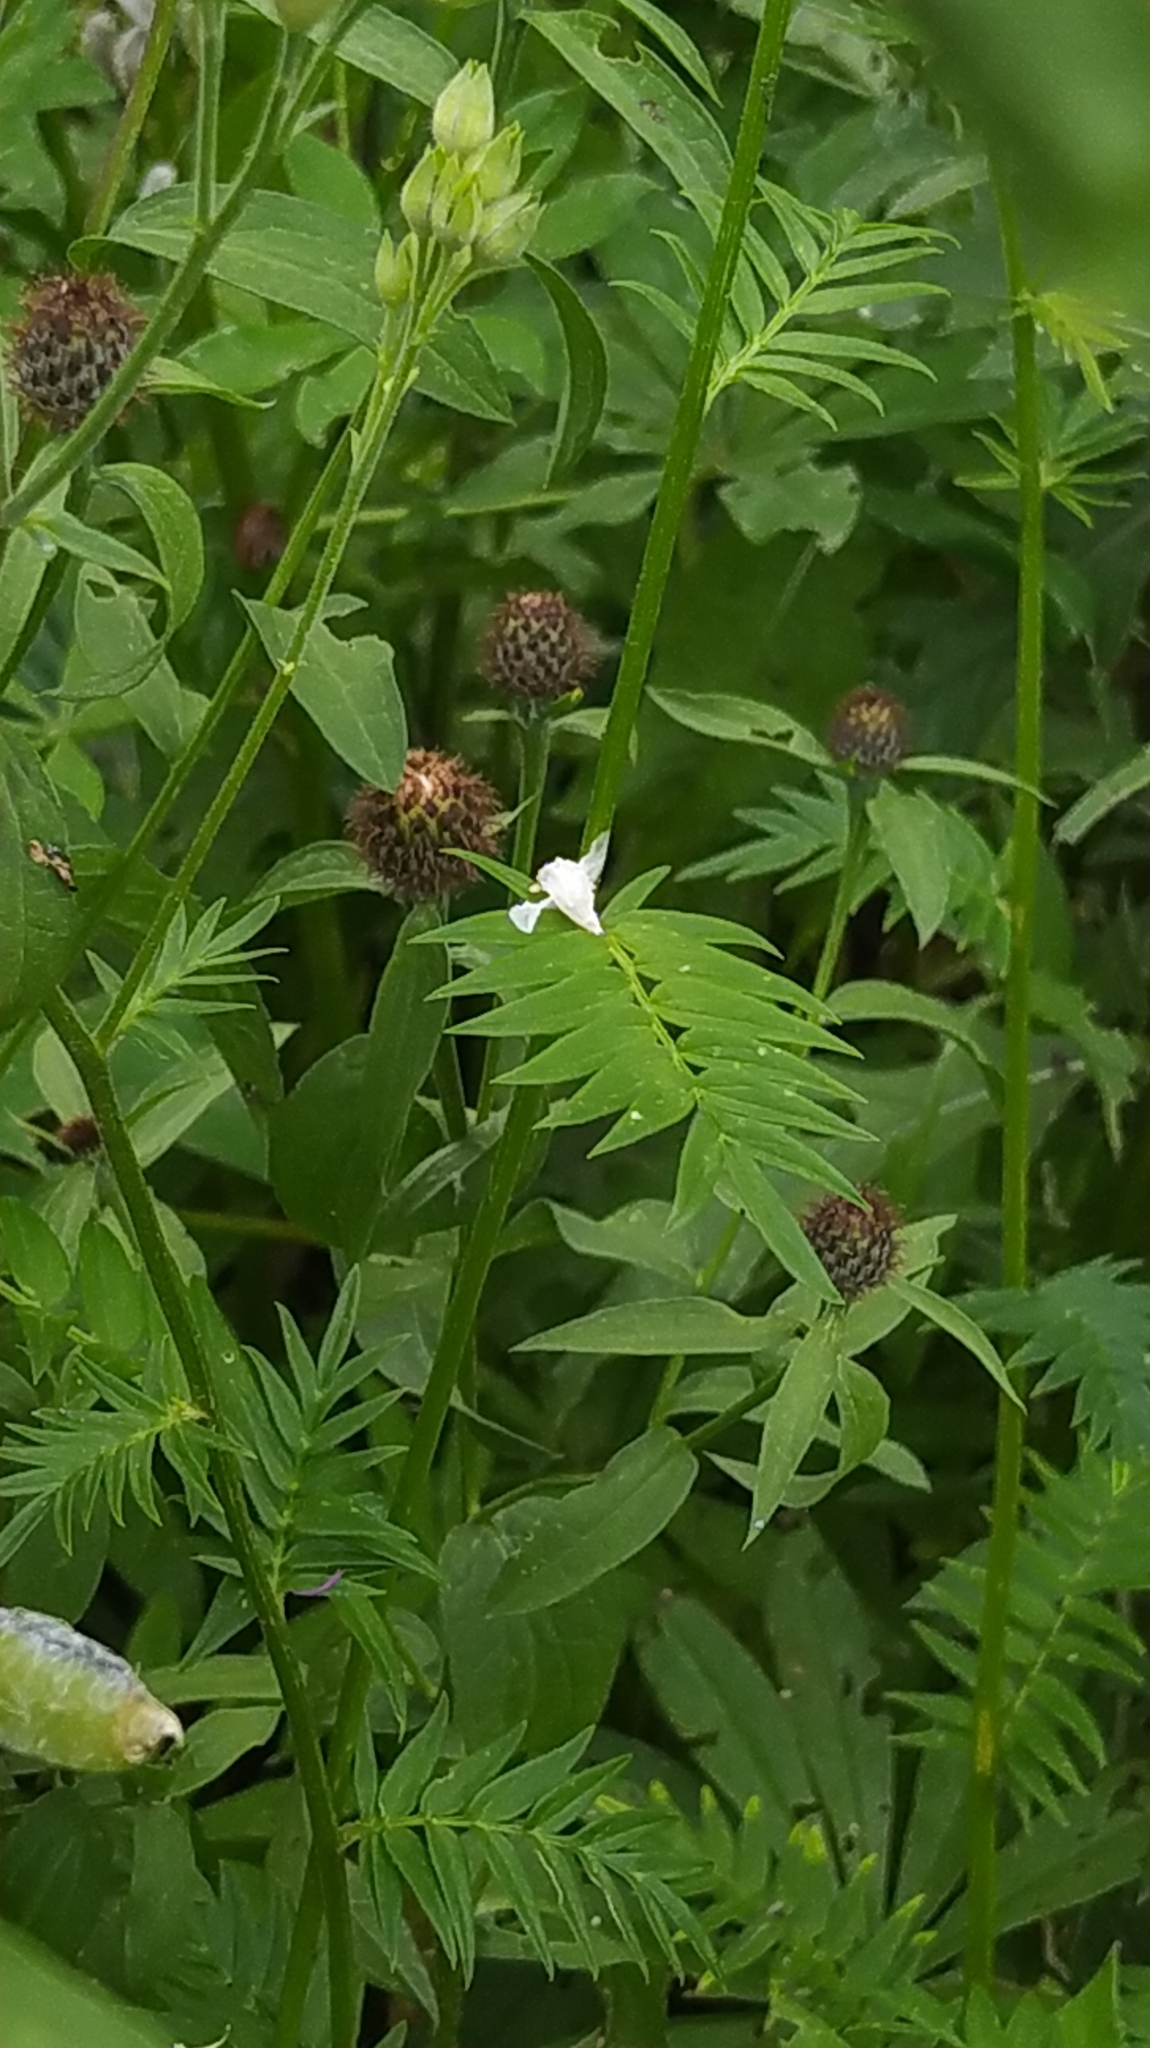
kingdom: Plantae
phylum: Tracheophyta
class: Magnoliopsida
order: Ericales
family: Polemoniaceae
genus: Polemonium
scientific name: Polemonium caeruleum
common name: Jacob's-ladder
